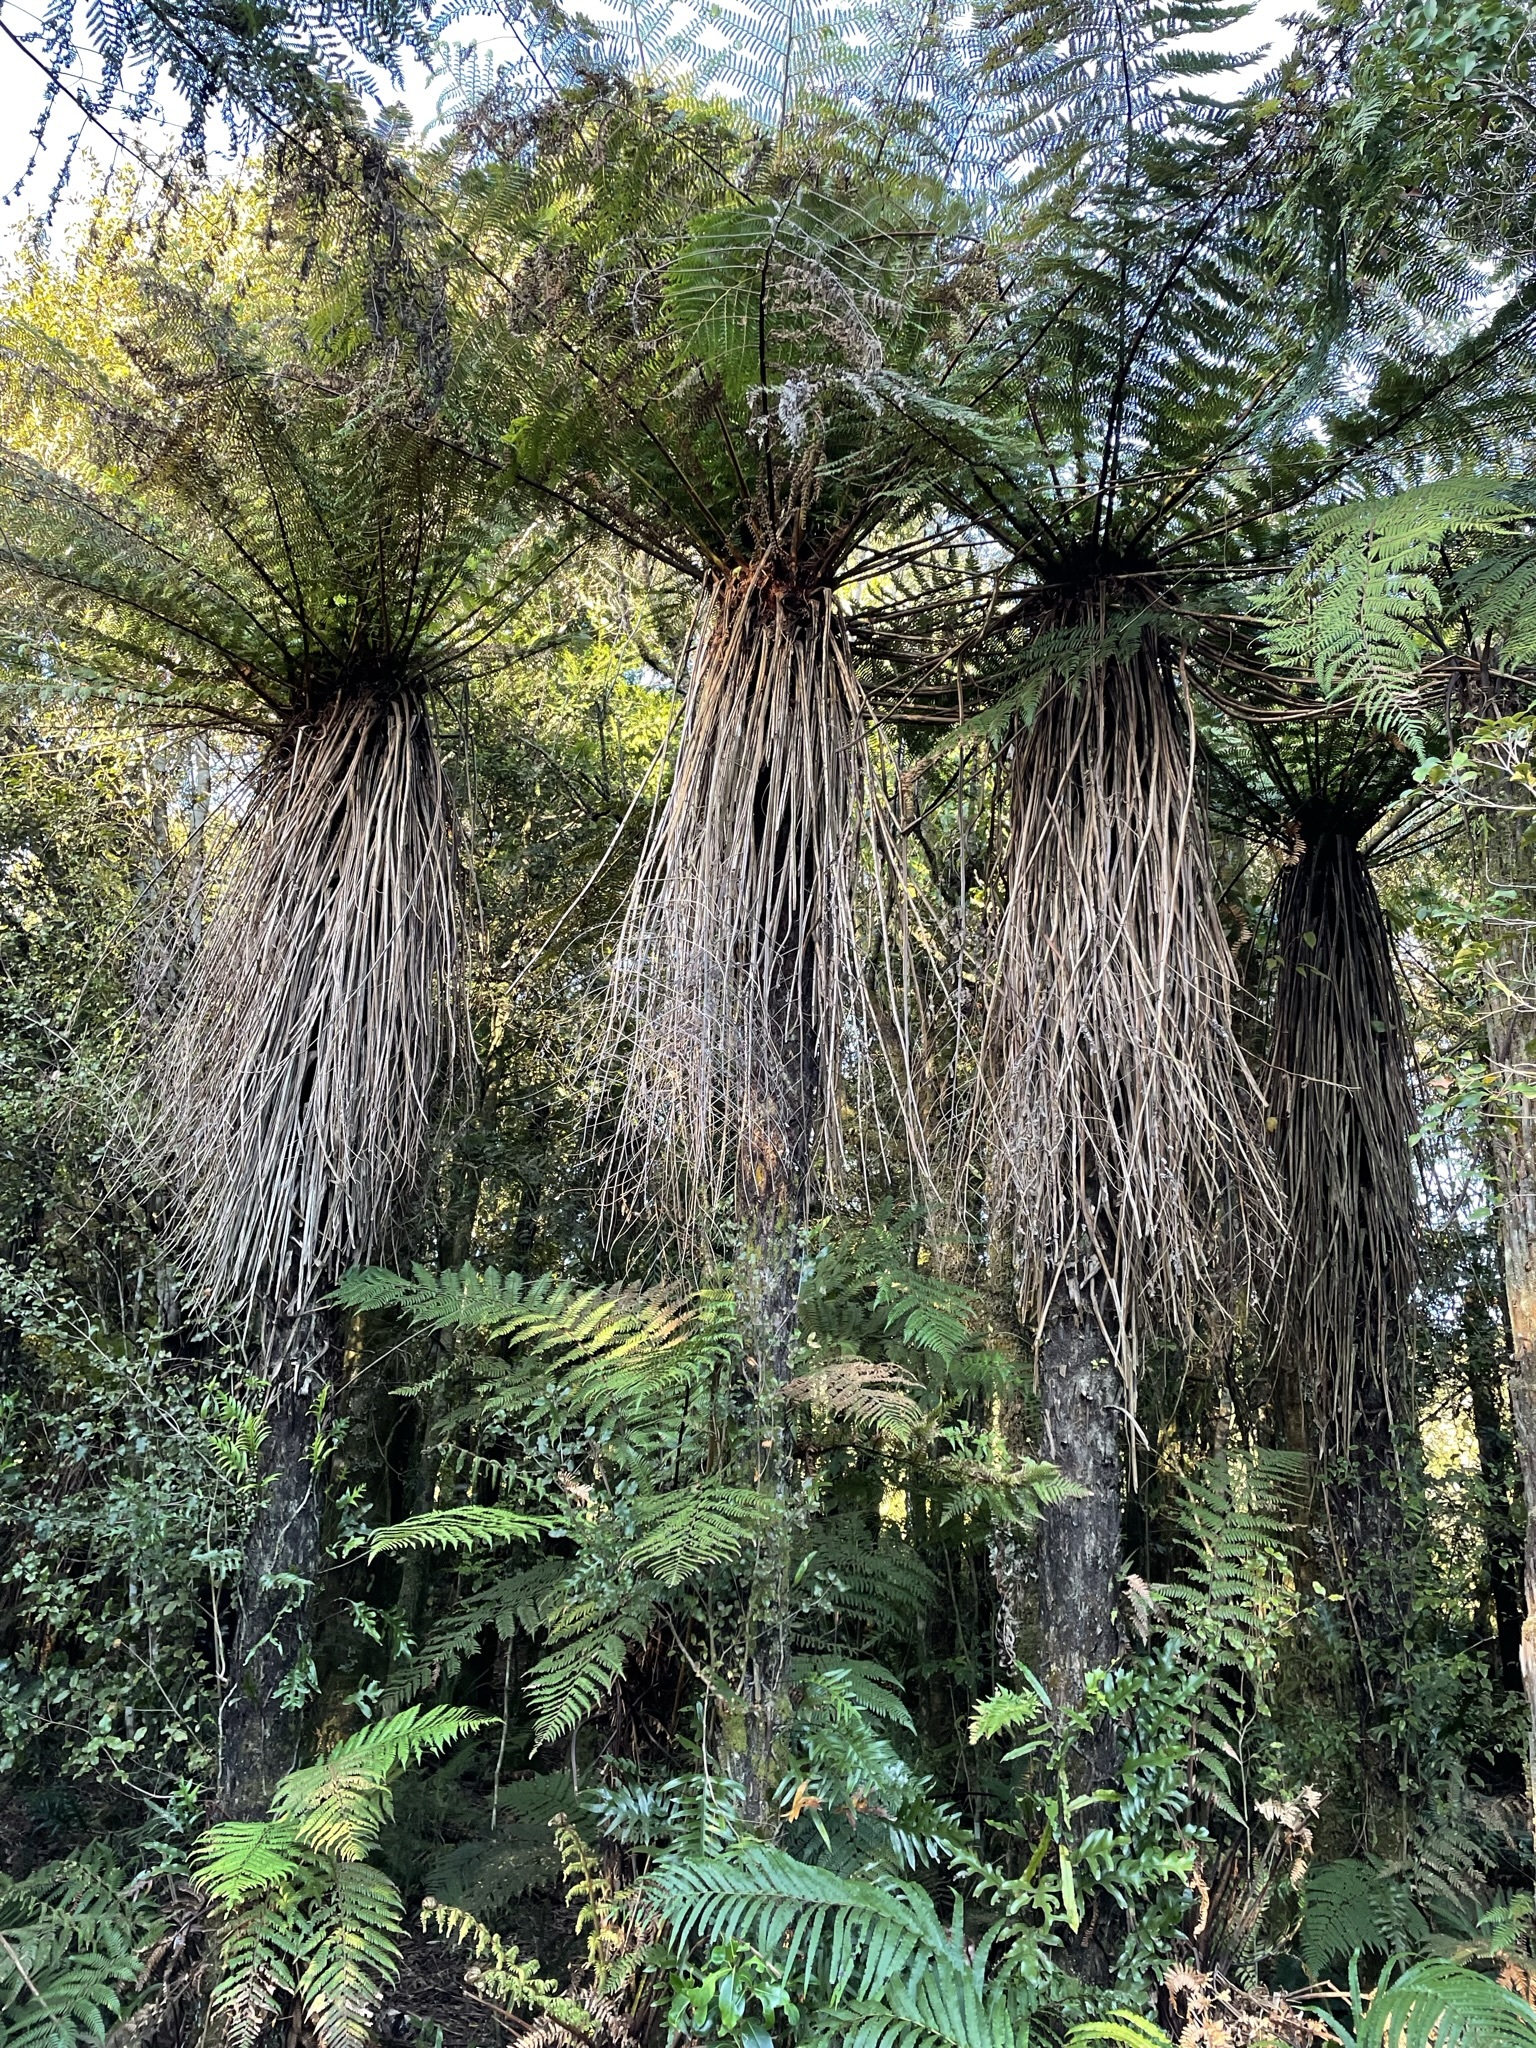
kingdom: Plantae
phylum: Tracheophyta
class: Polypodiopsida
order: Cyatheales
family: Cyatheaceae
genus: Alsophila
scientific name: Alsophila smithii
